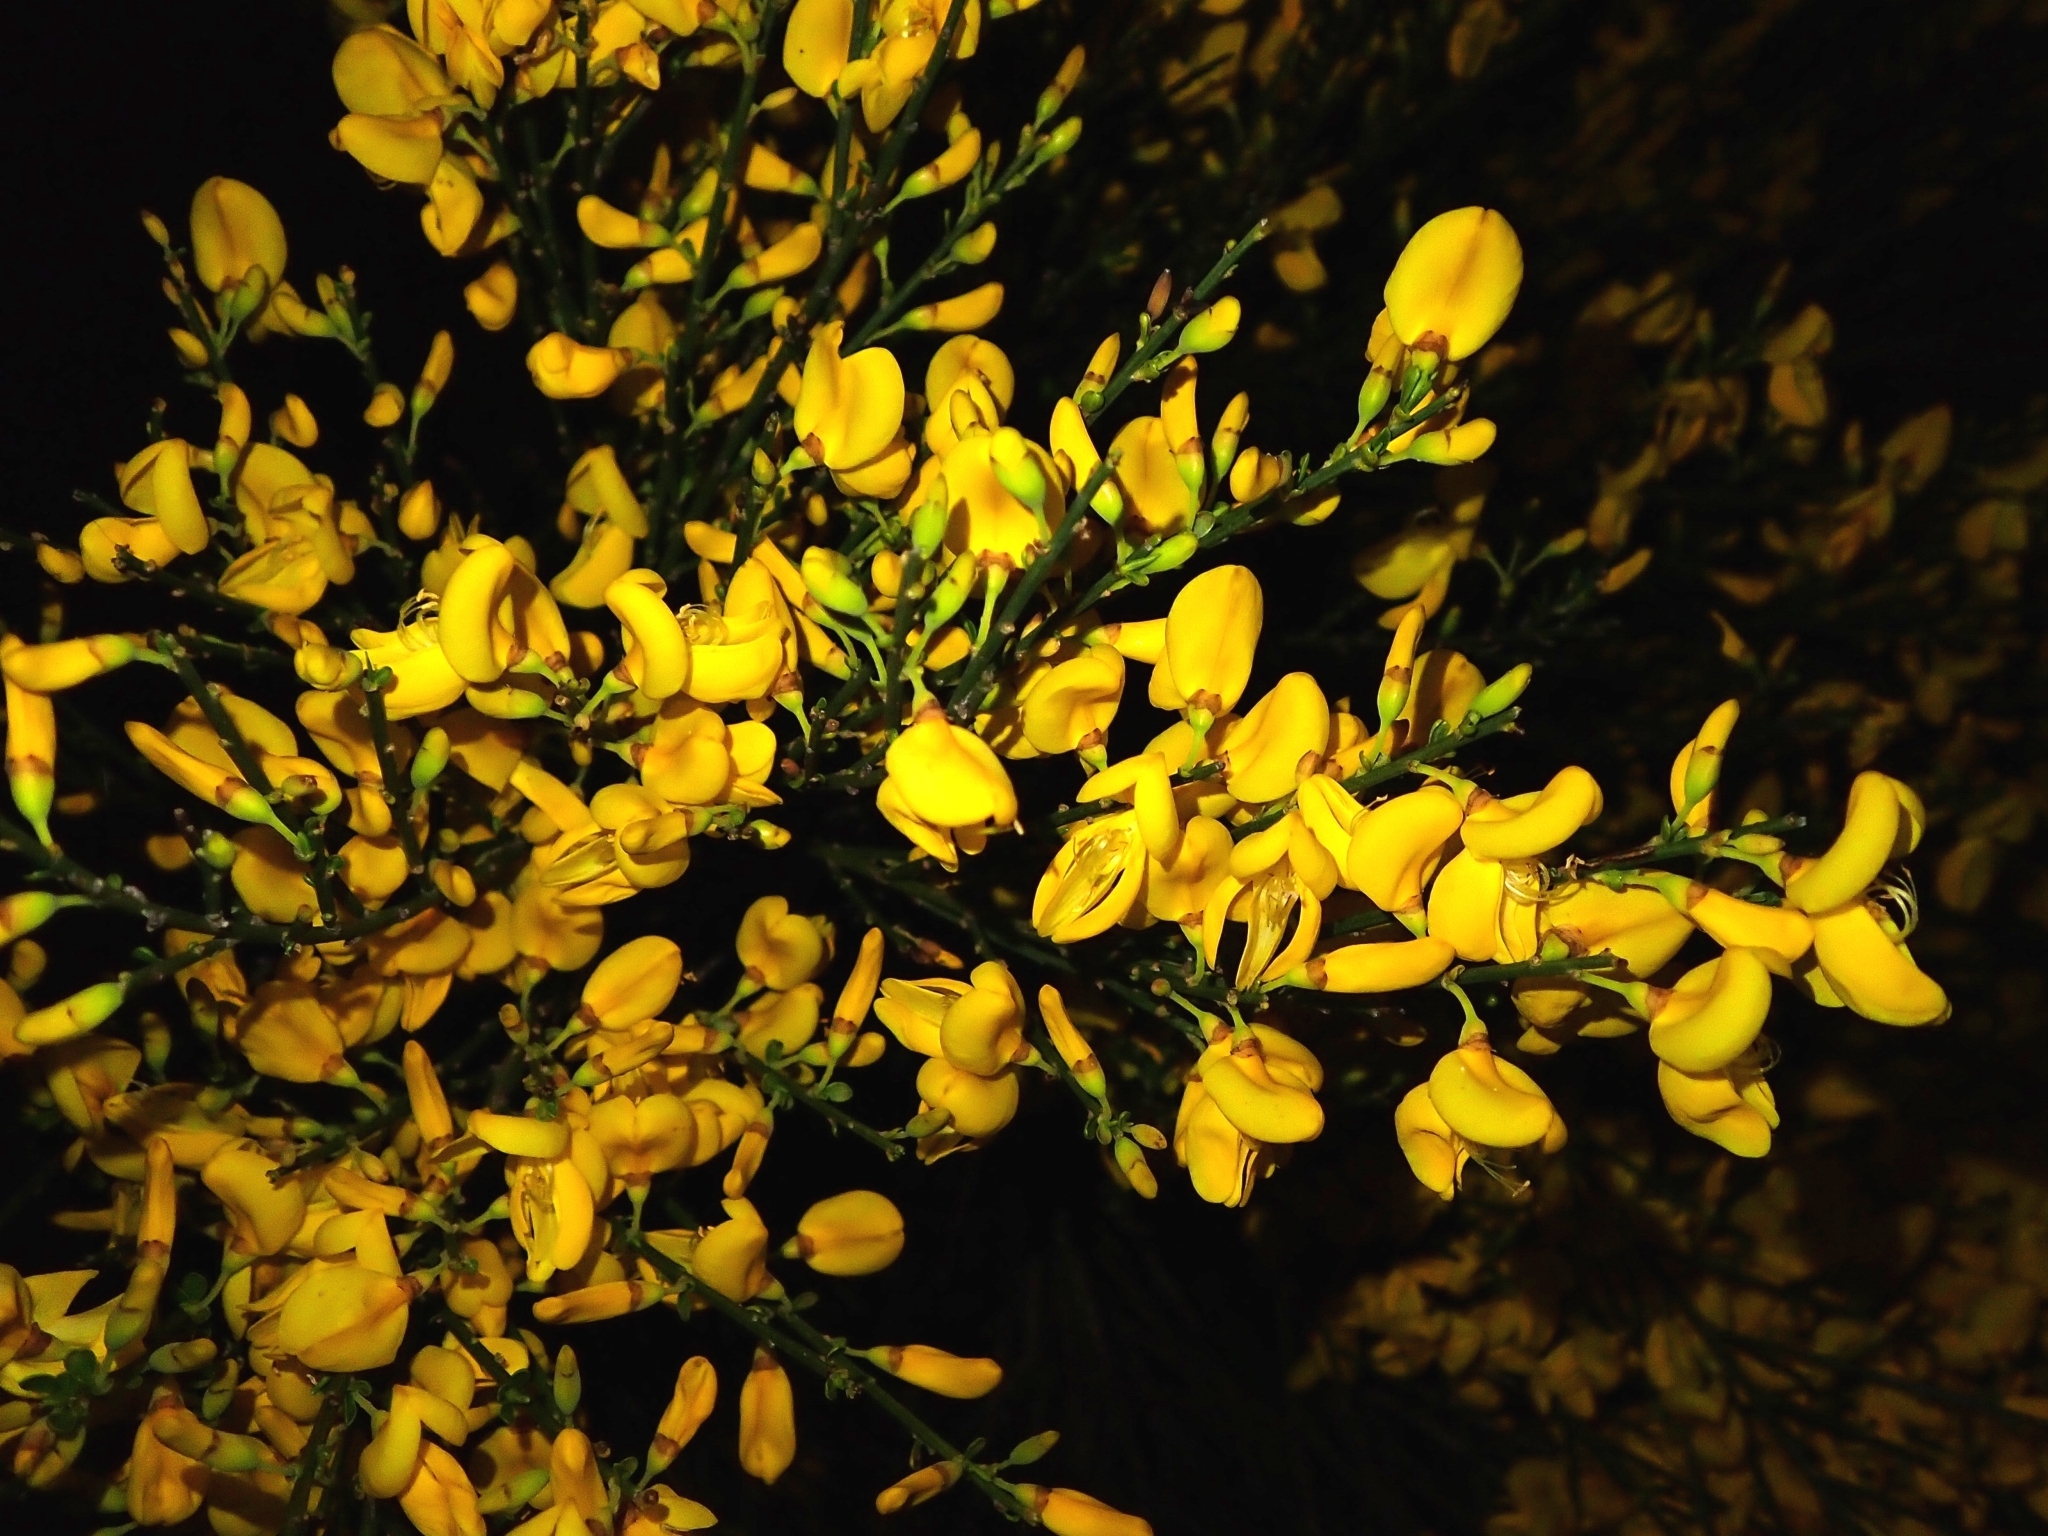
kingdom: Plantae
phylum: Tracheophyta
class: Magnoliopsida
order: Fabales
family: Fabaceae
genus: Cytisus
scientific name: Cytisus scoparius
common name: Scotch broom
